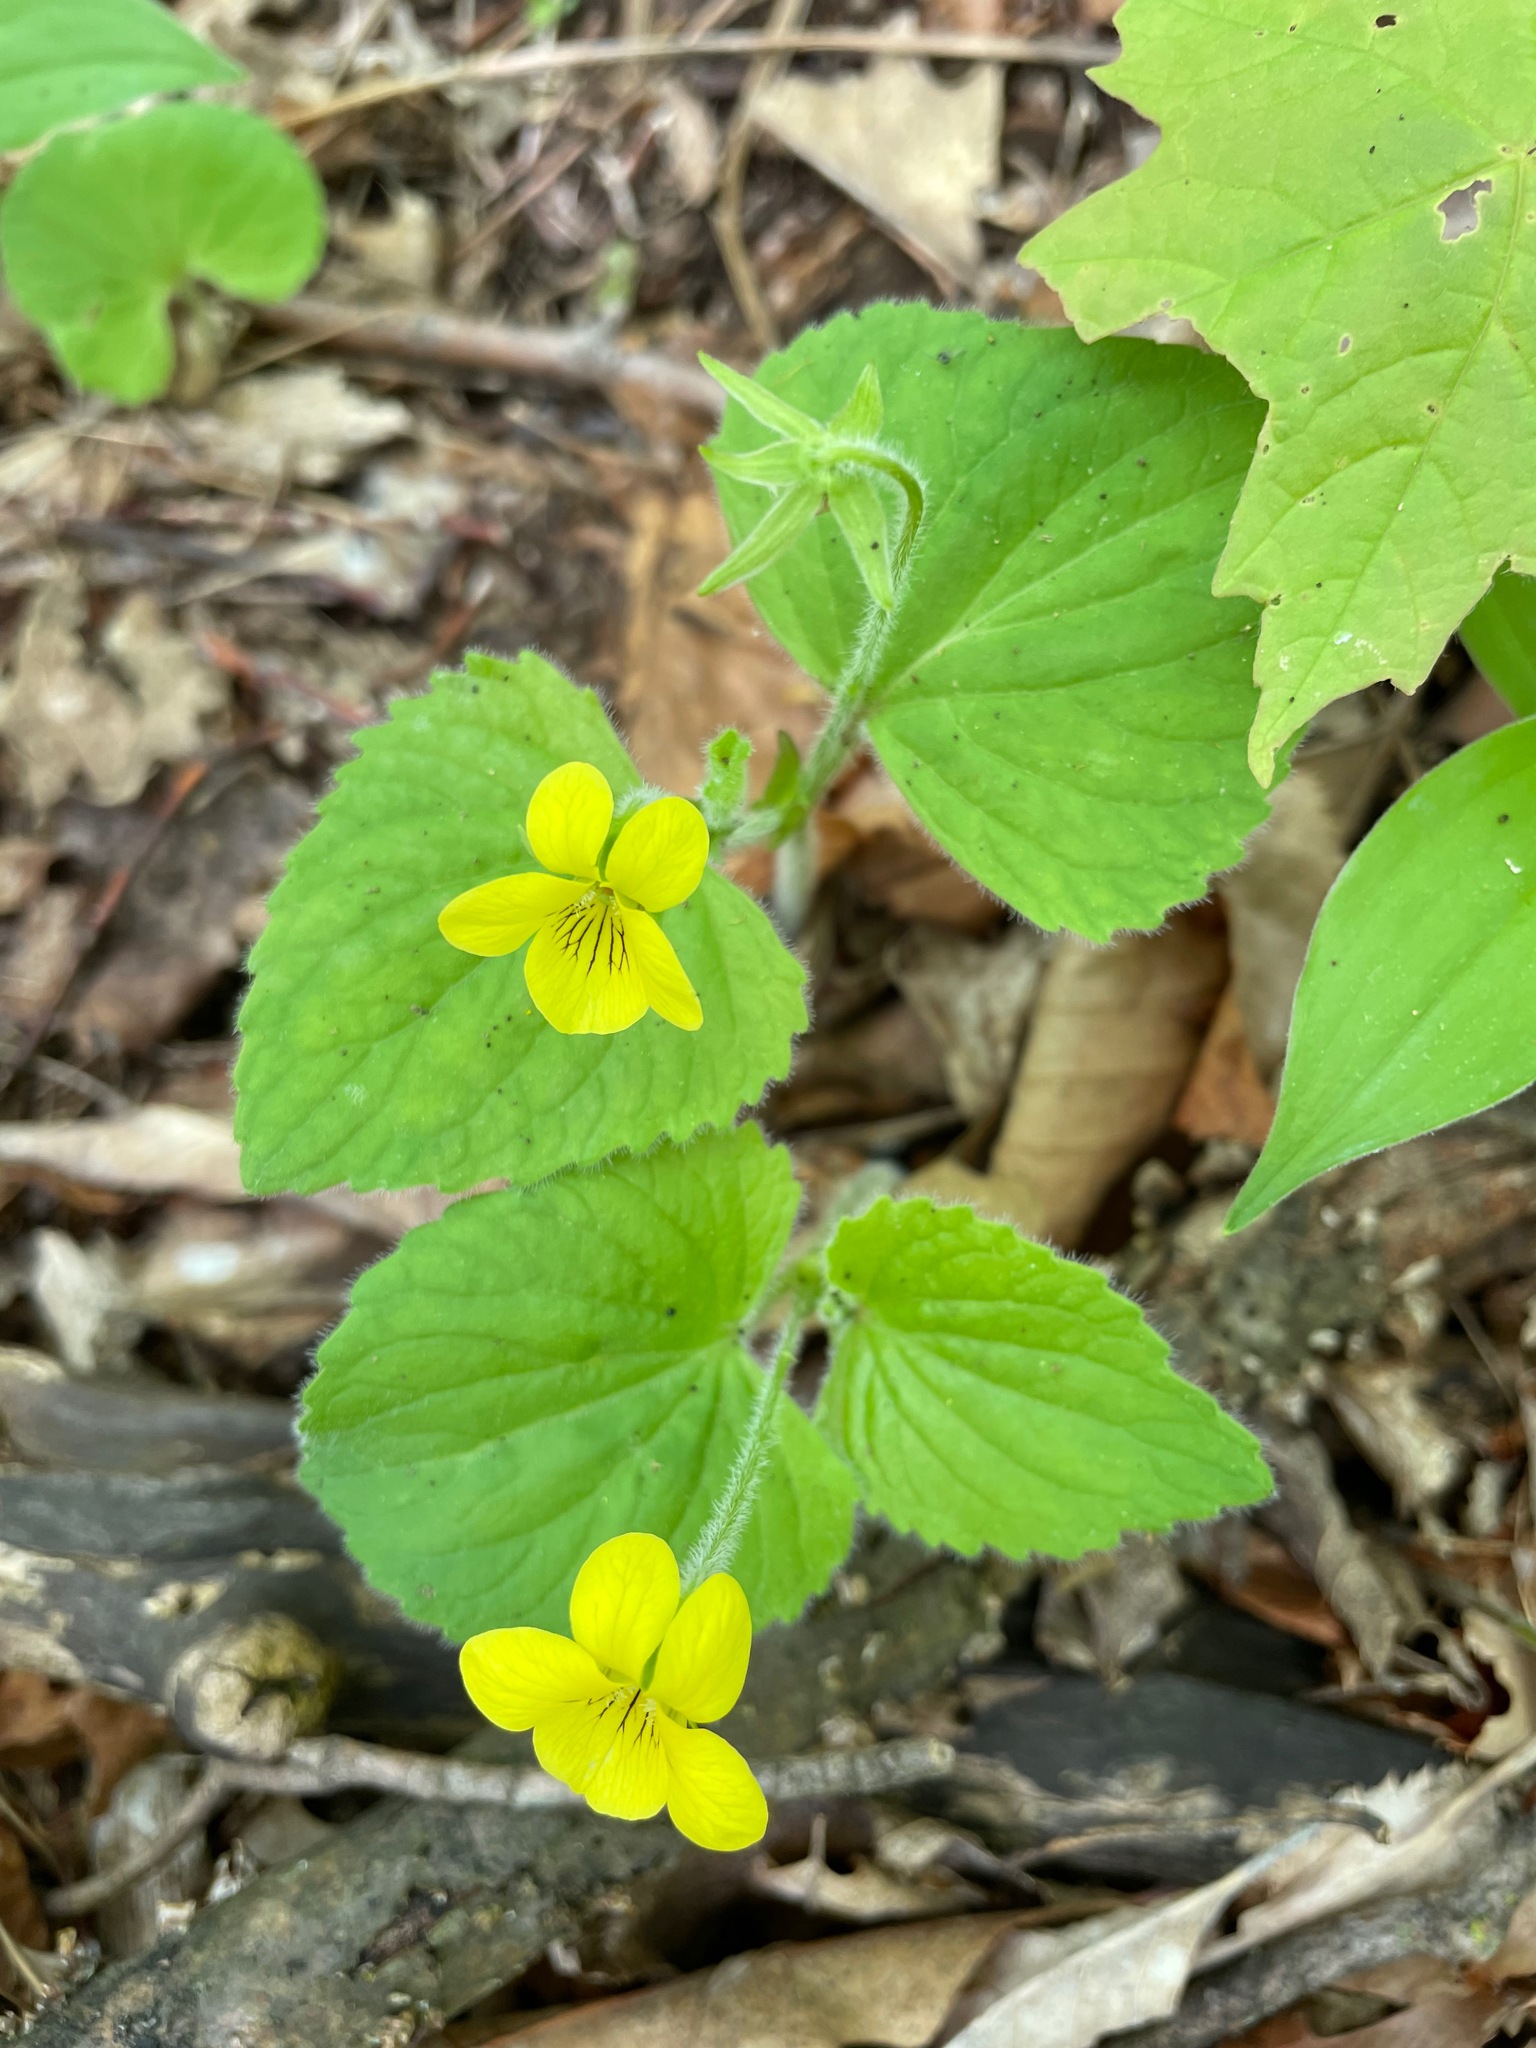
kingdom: Plantae
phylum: Tracheophyta
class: Magnoliopsida
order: Malpighiales
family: Violaceae
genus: Viola
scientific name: Viola pubescens
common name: Yellow forest violet
